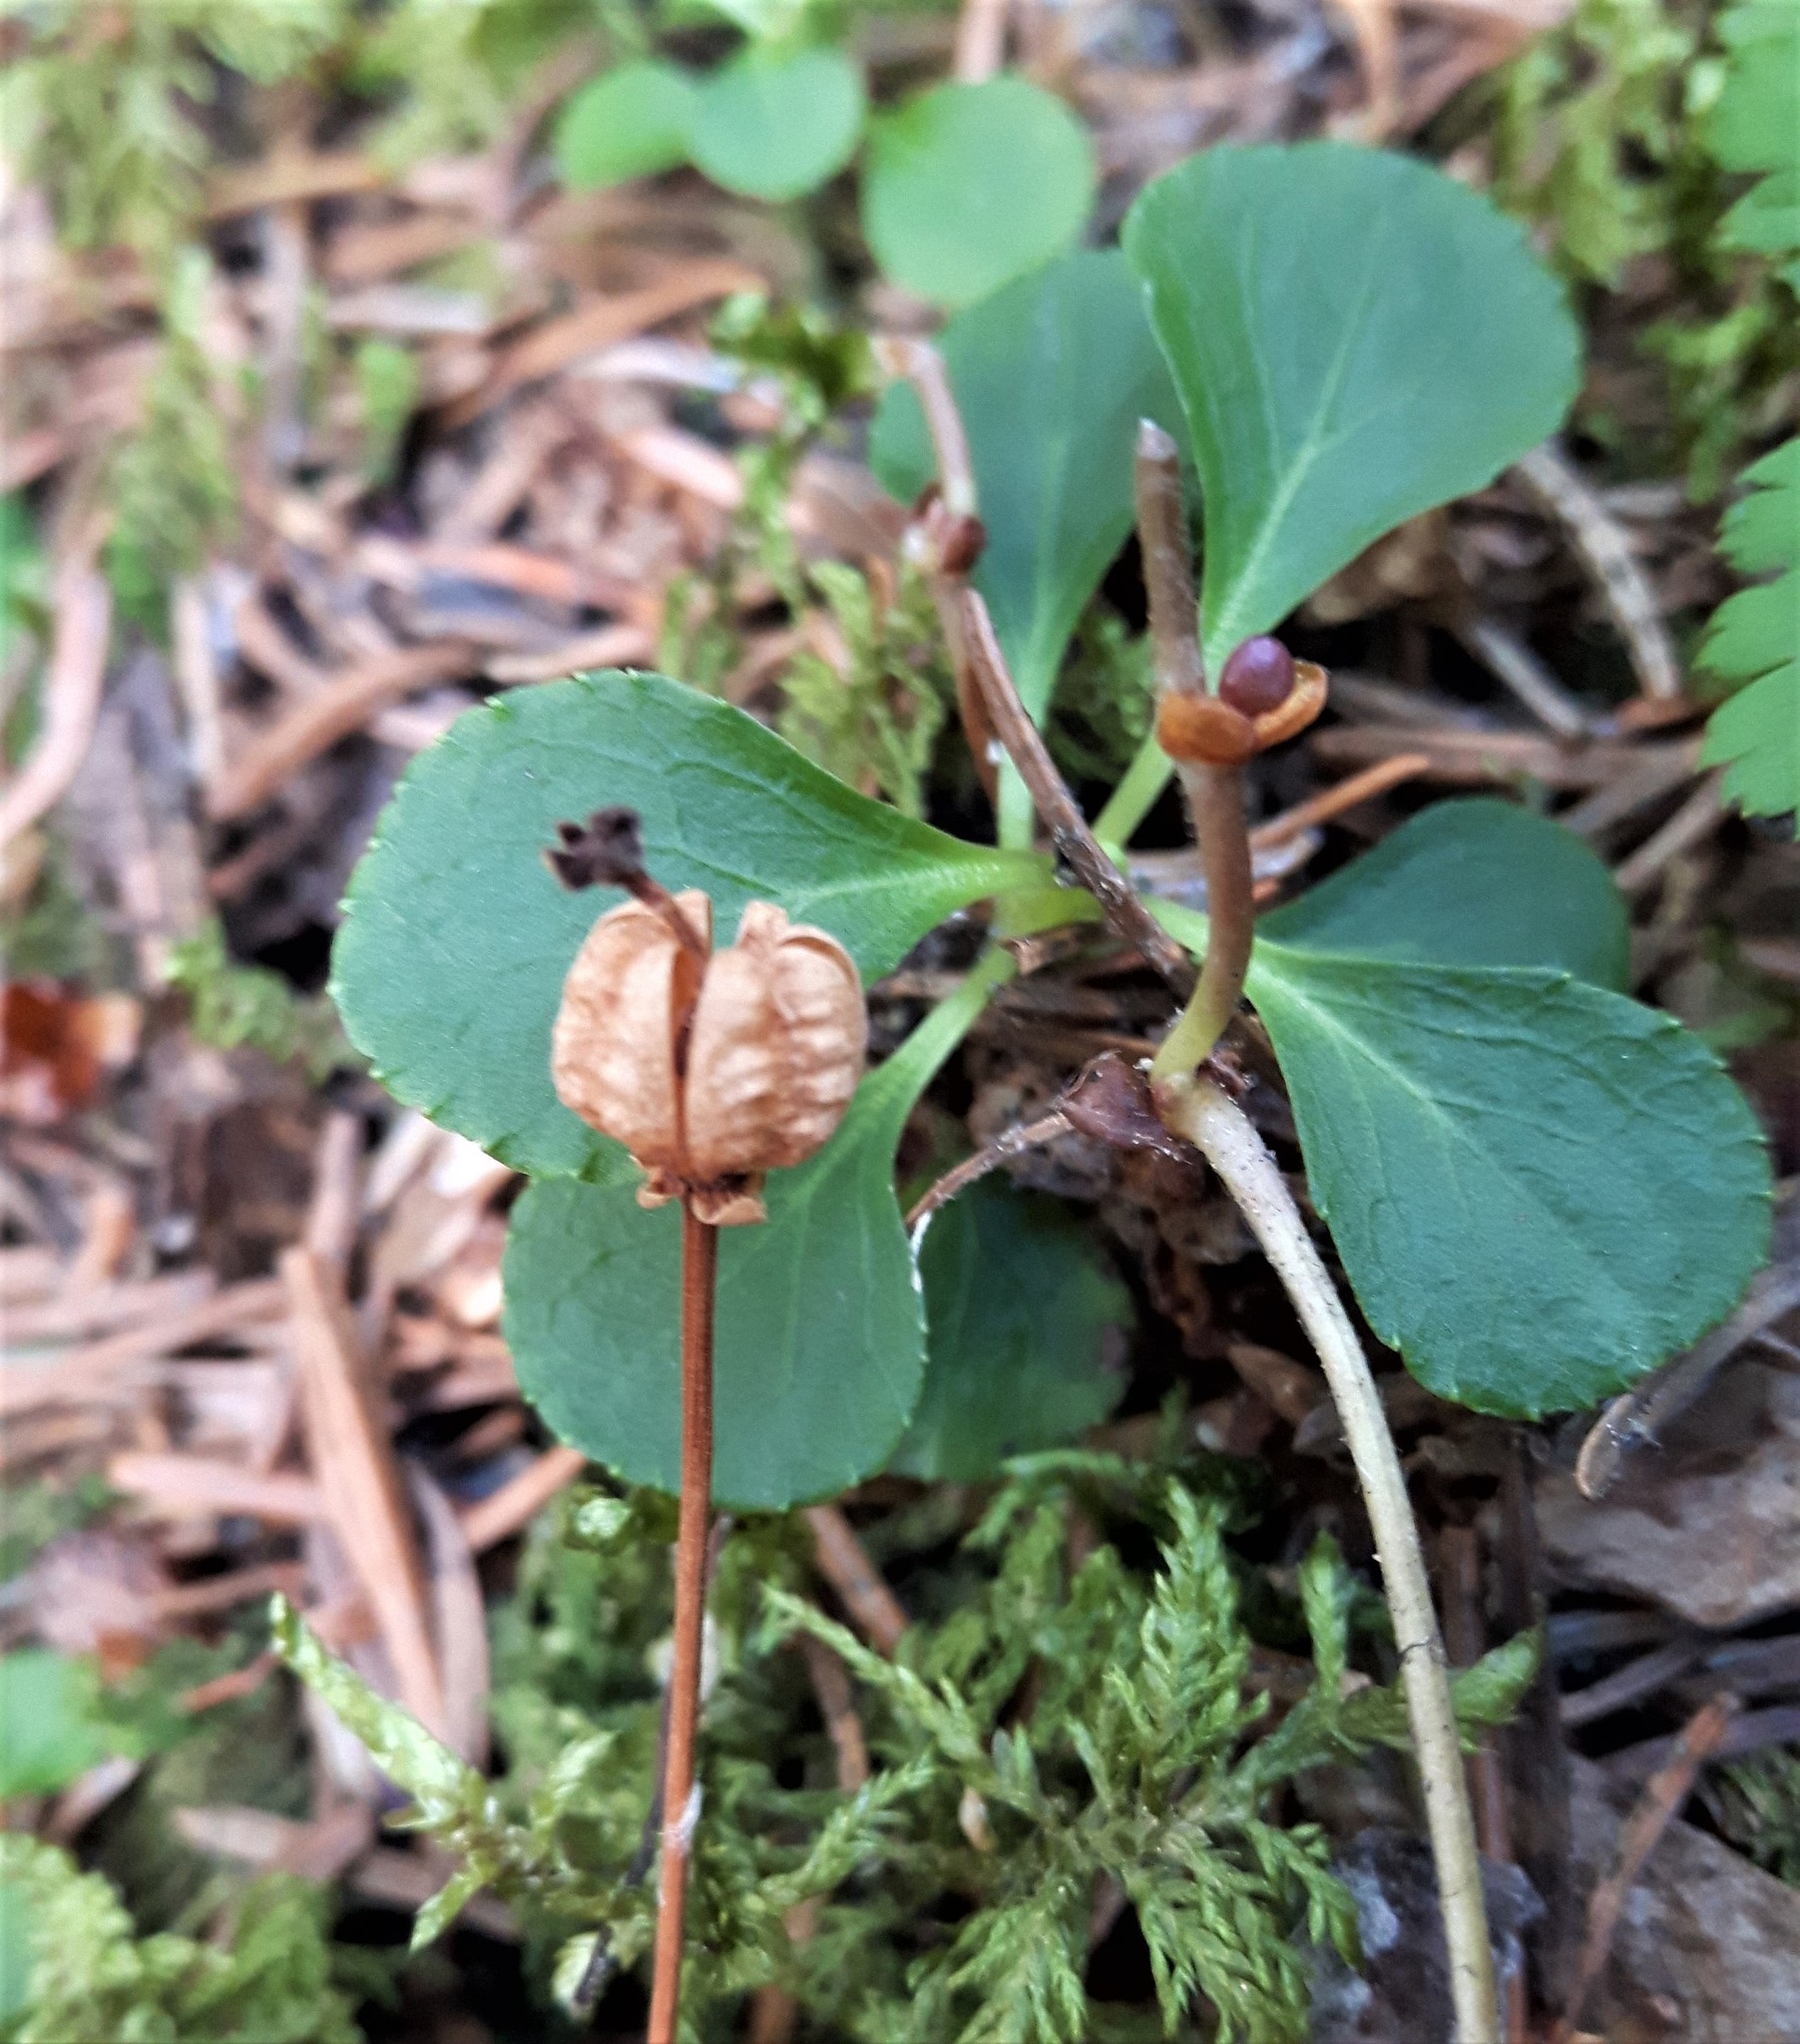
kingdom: Plantae
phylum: Tracheophyta
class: Magnoliopsida
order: Ericales
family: Ericaceae
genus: Moneses
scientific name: Moneses uniflora
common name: One-flowered wintergreen
